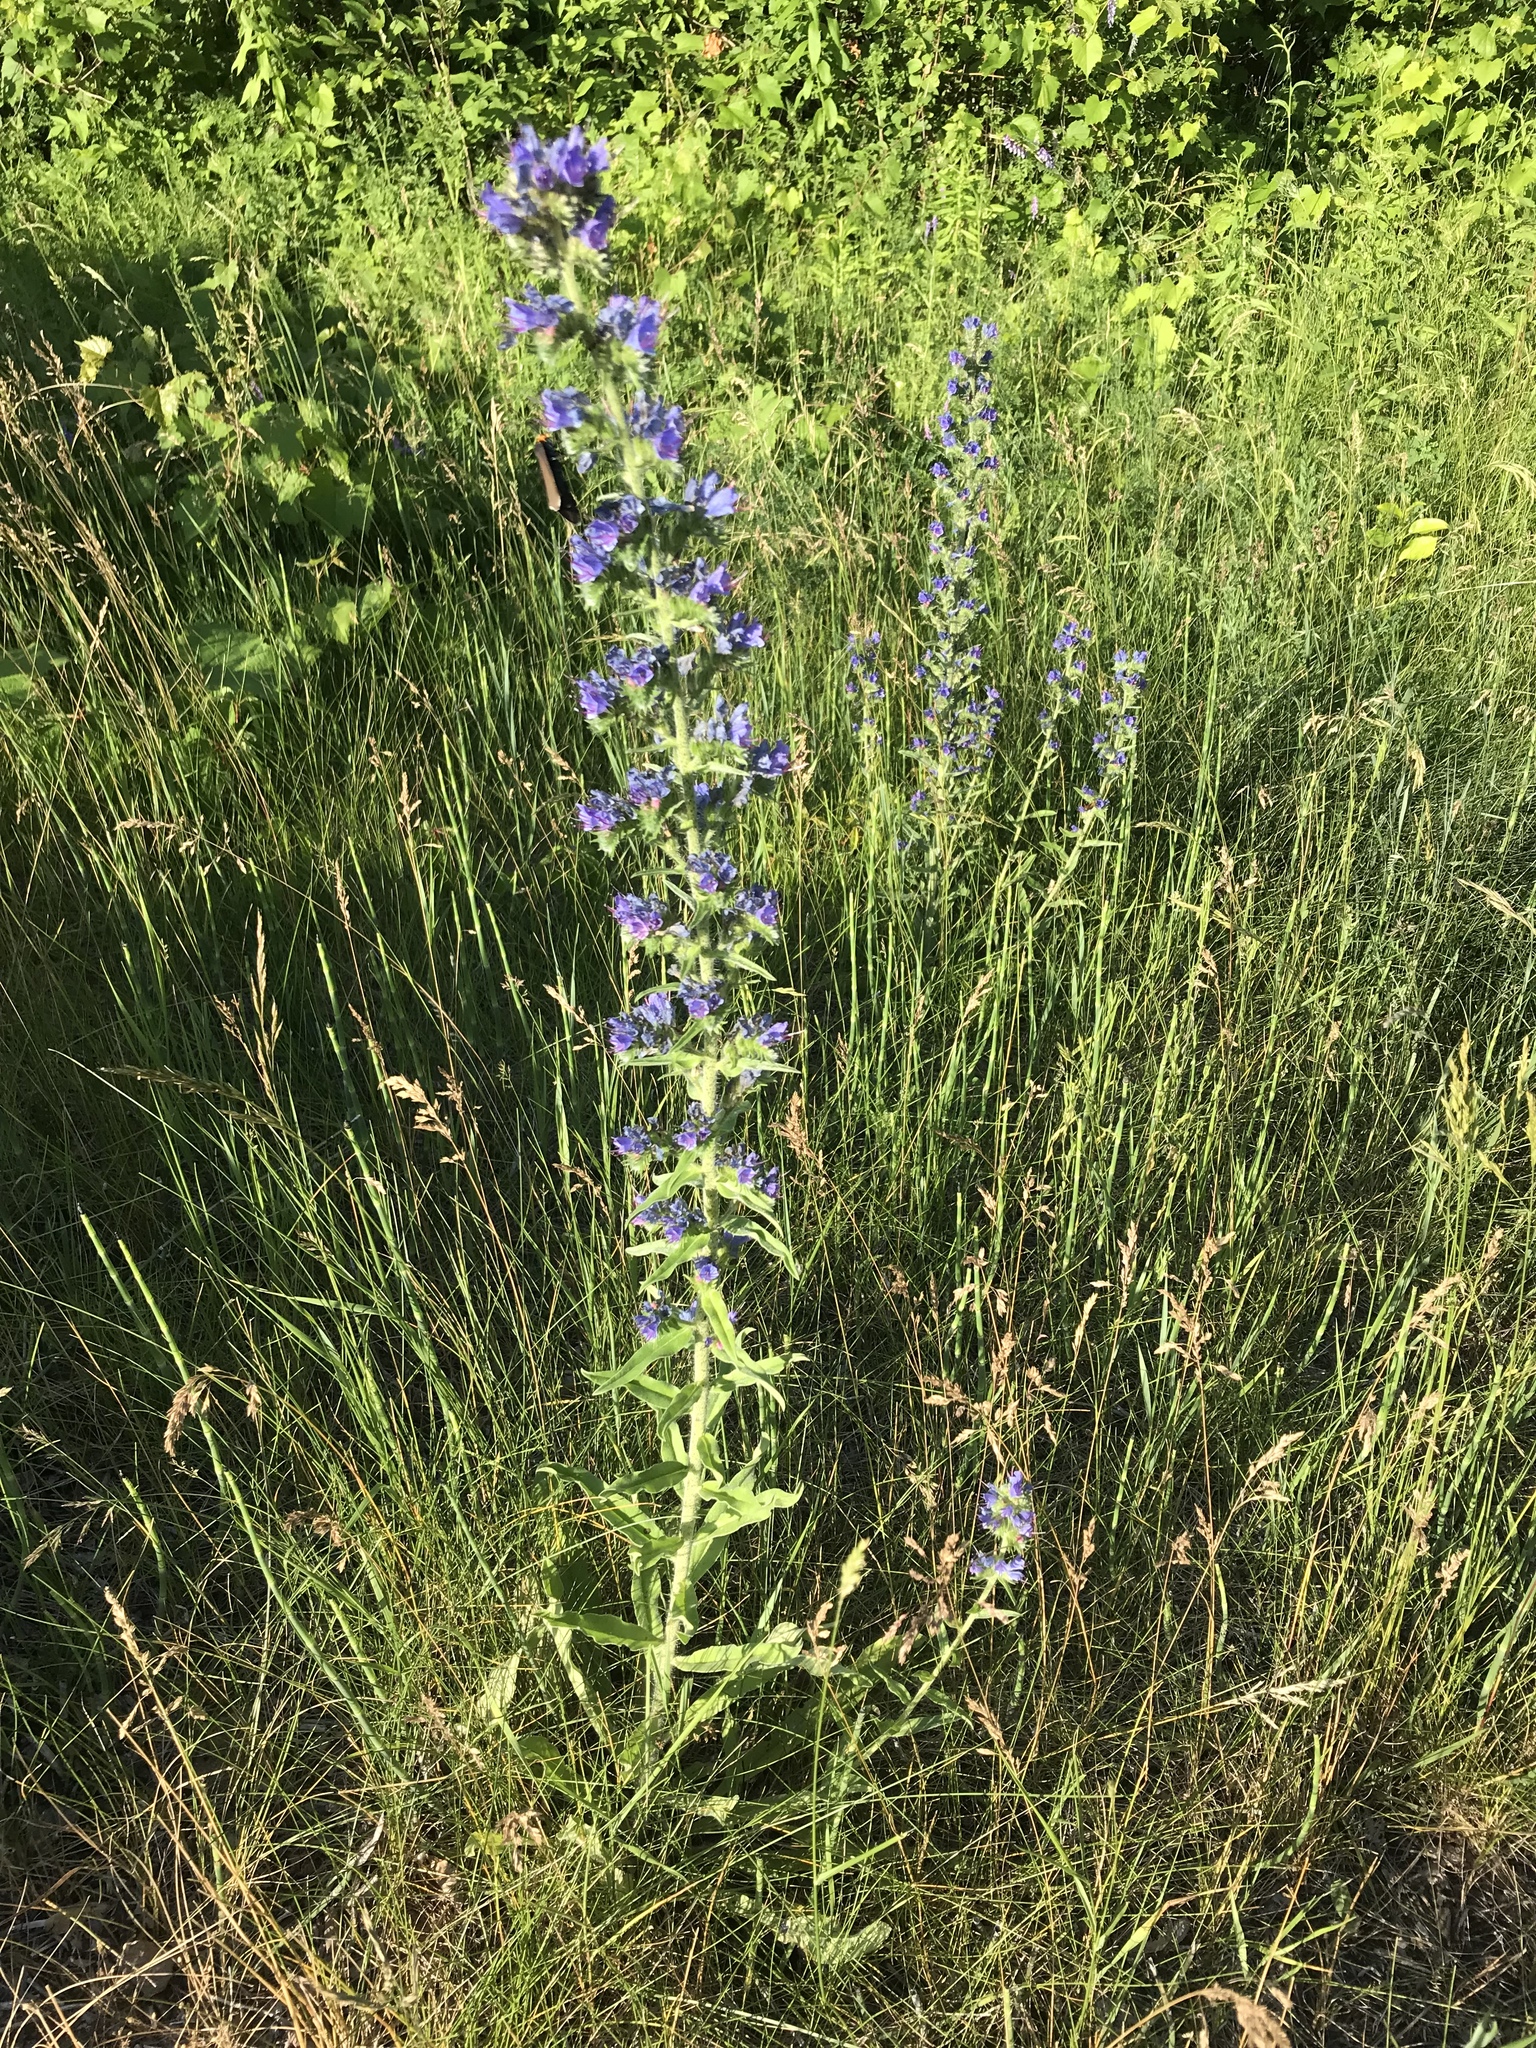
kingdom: Plantae
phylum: Tracheophyta
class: Magnoliopsida
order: Boraginales
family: Boraginaceae
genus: Echium
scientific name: Echium vulgare
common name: Common viper's bugloss
